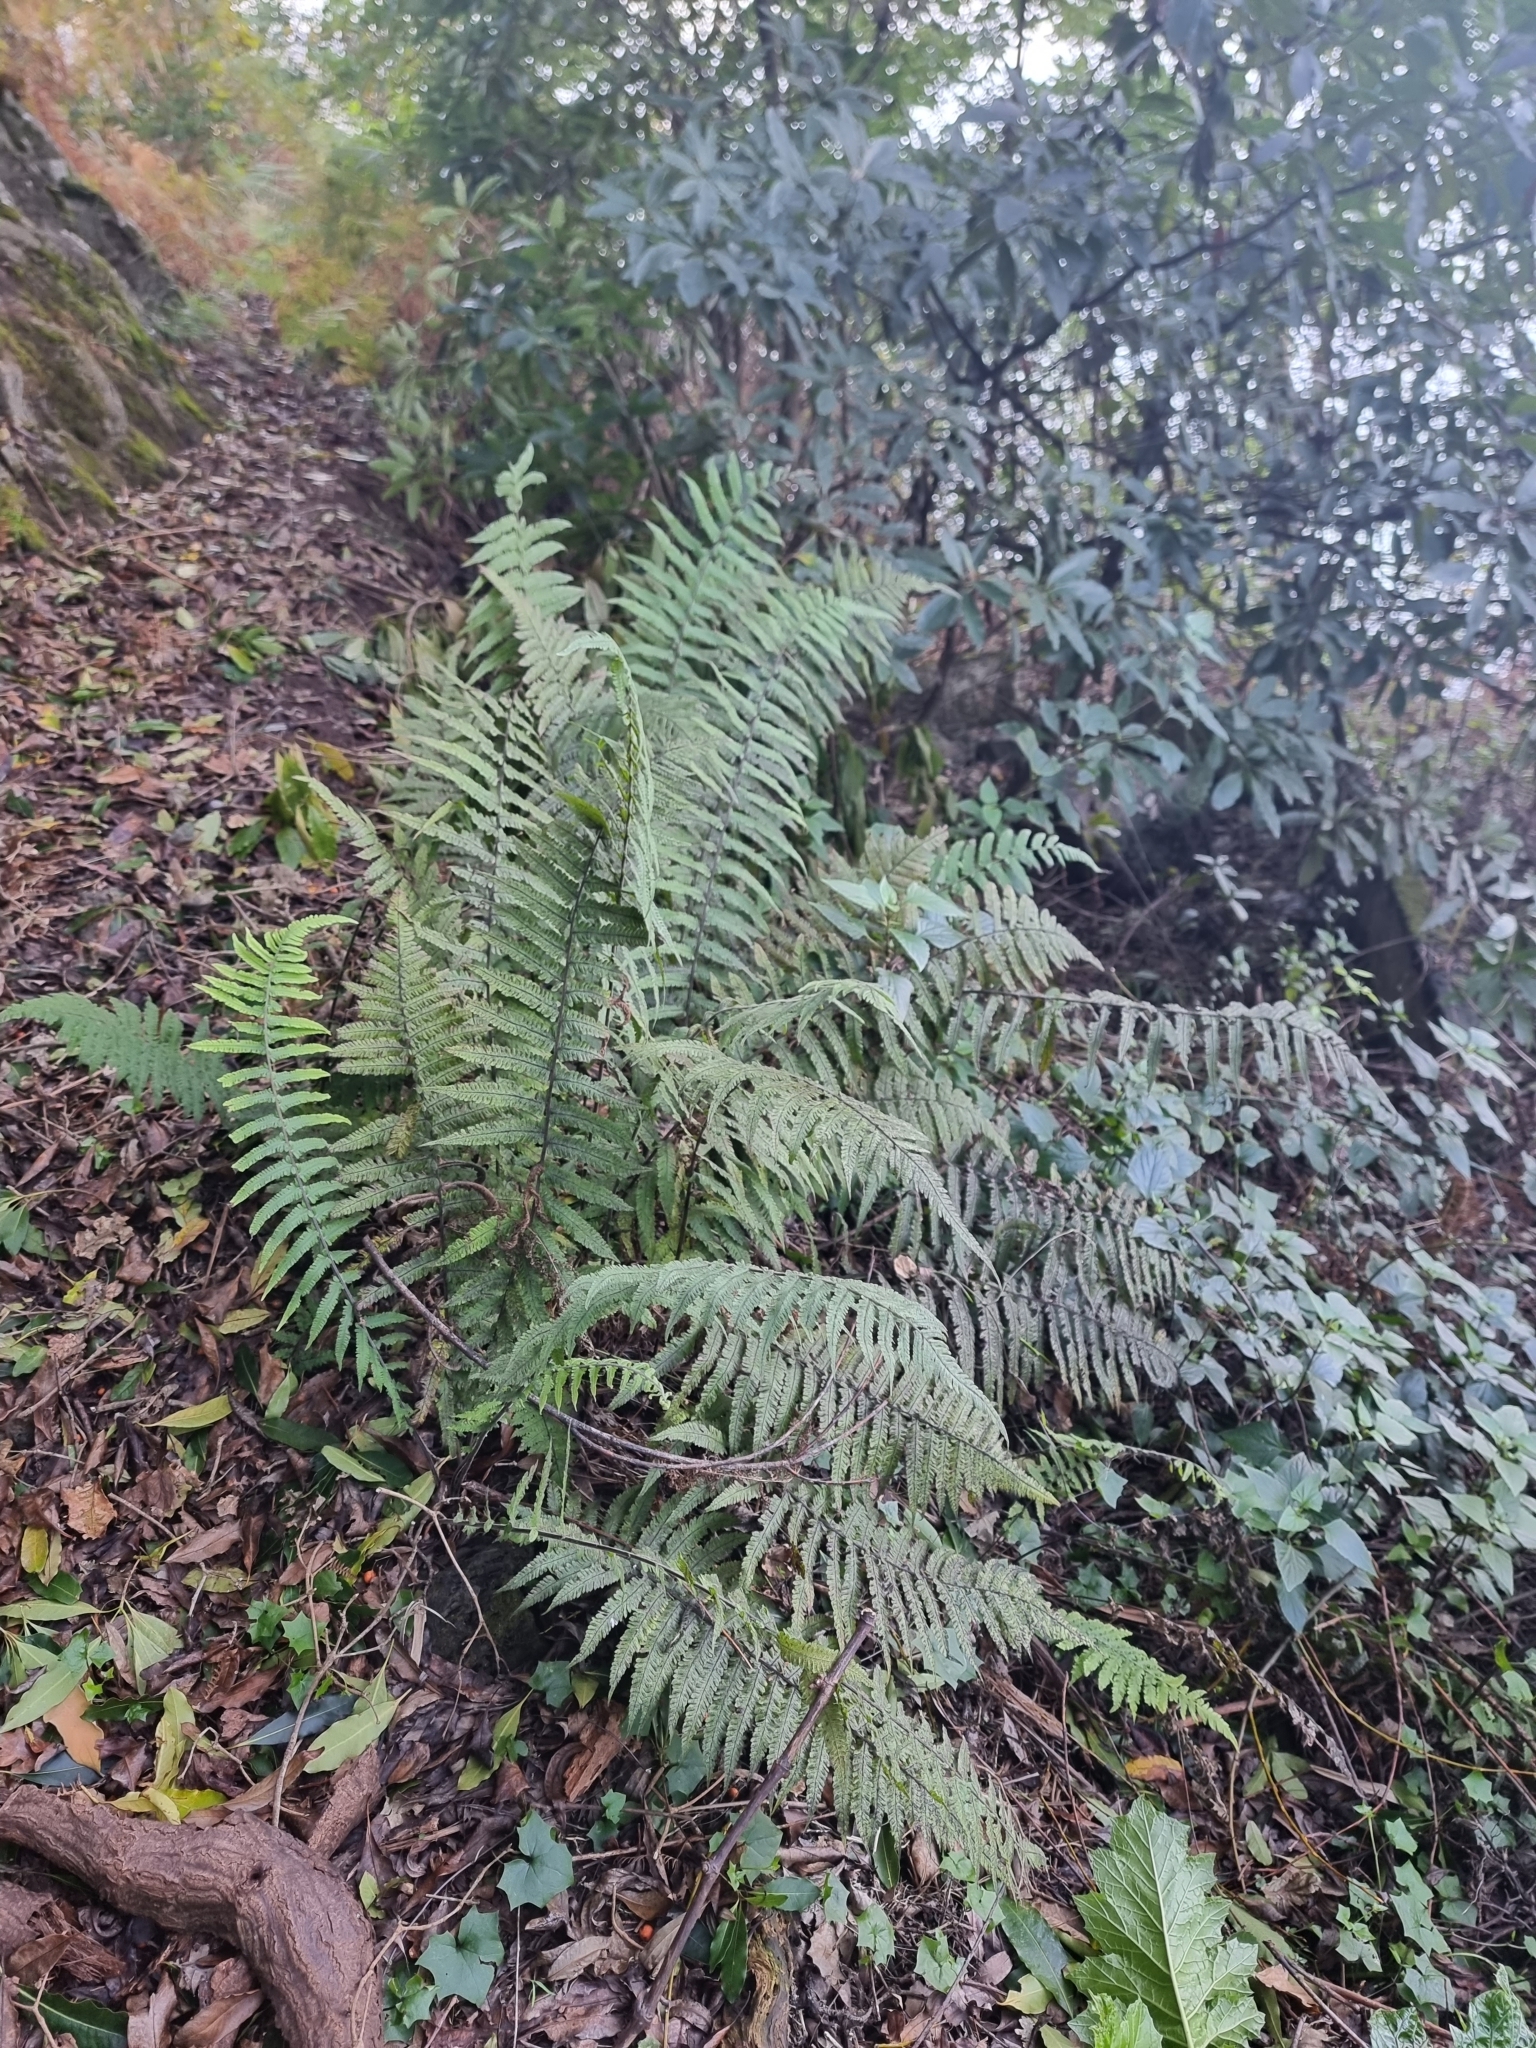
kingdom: Plantae
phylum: Tracheophyta
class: Polypodiopsida
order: Polypodiales
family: Thelypteridaceae
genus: Christella
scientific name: Christella dentata
